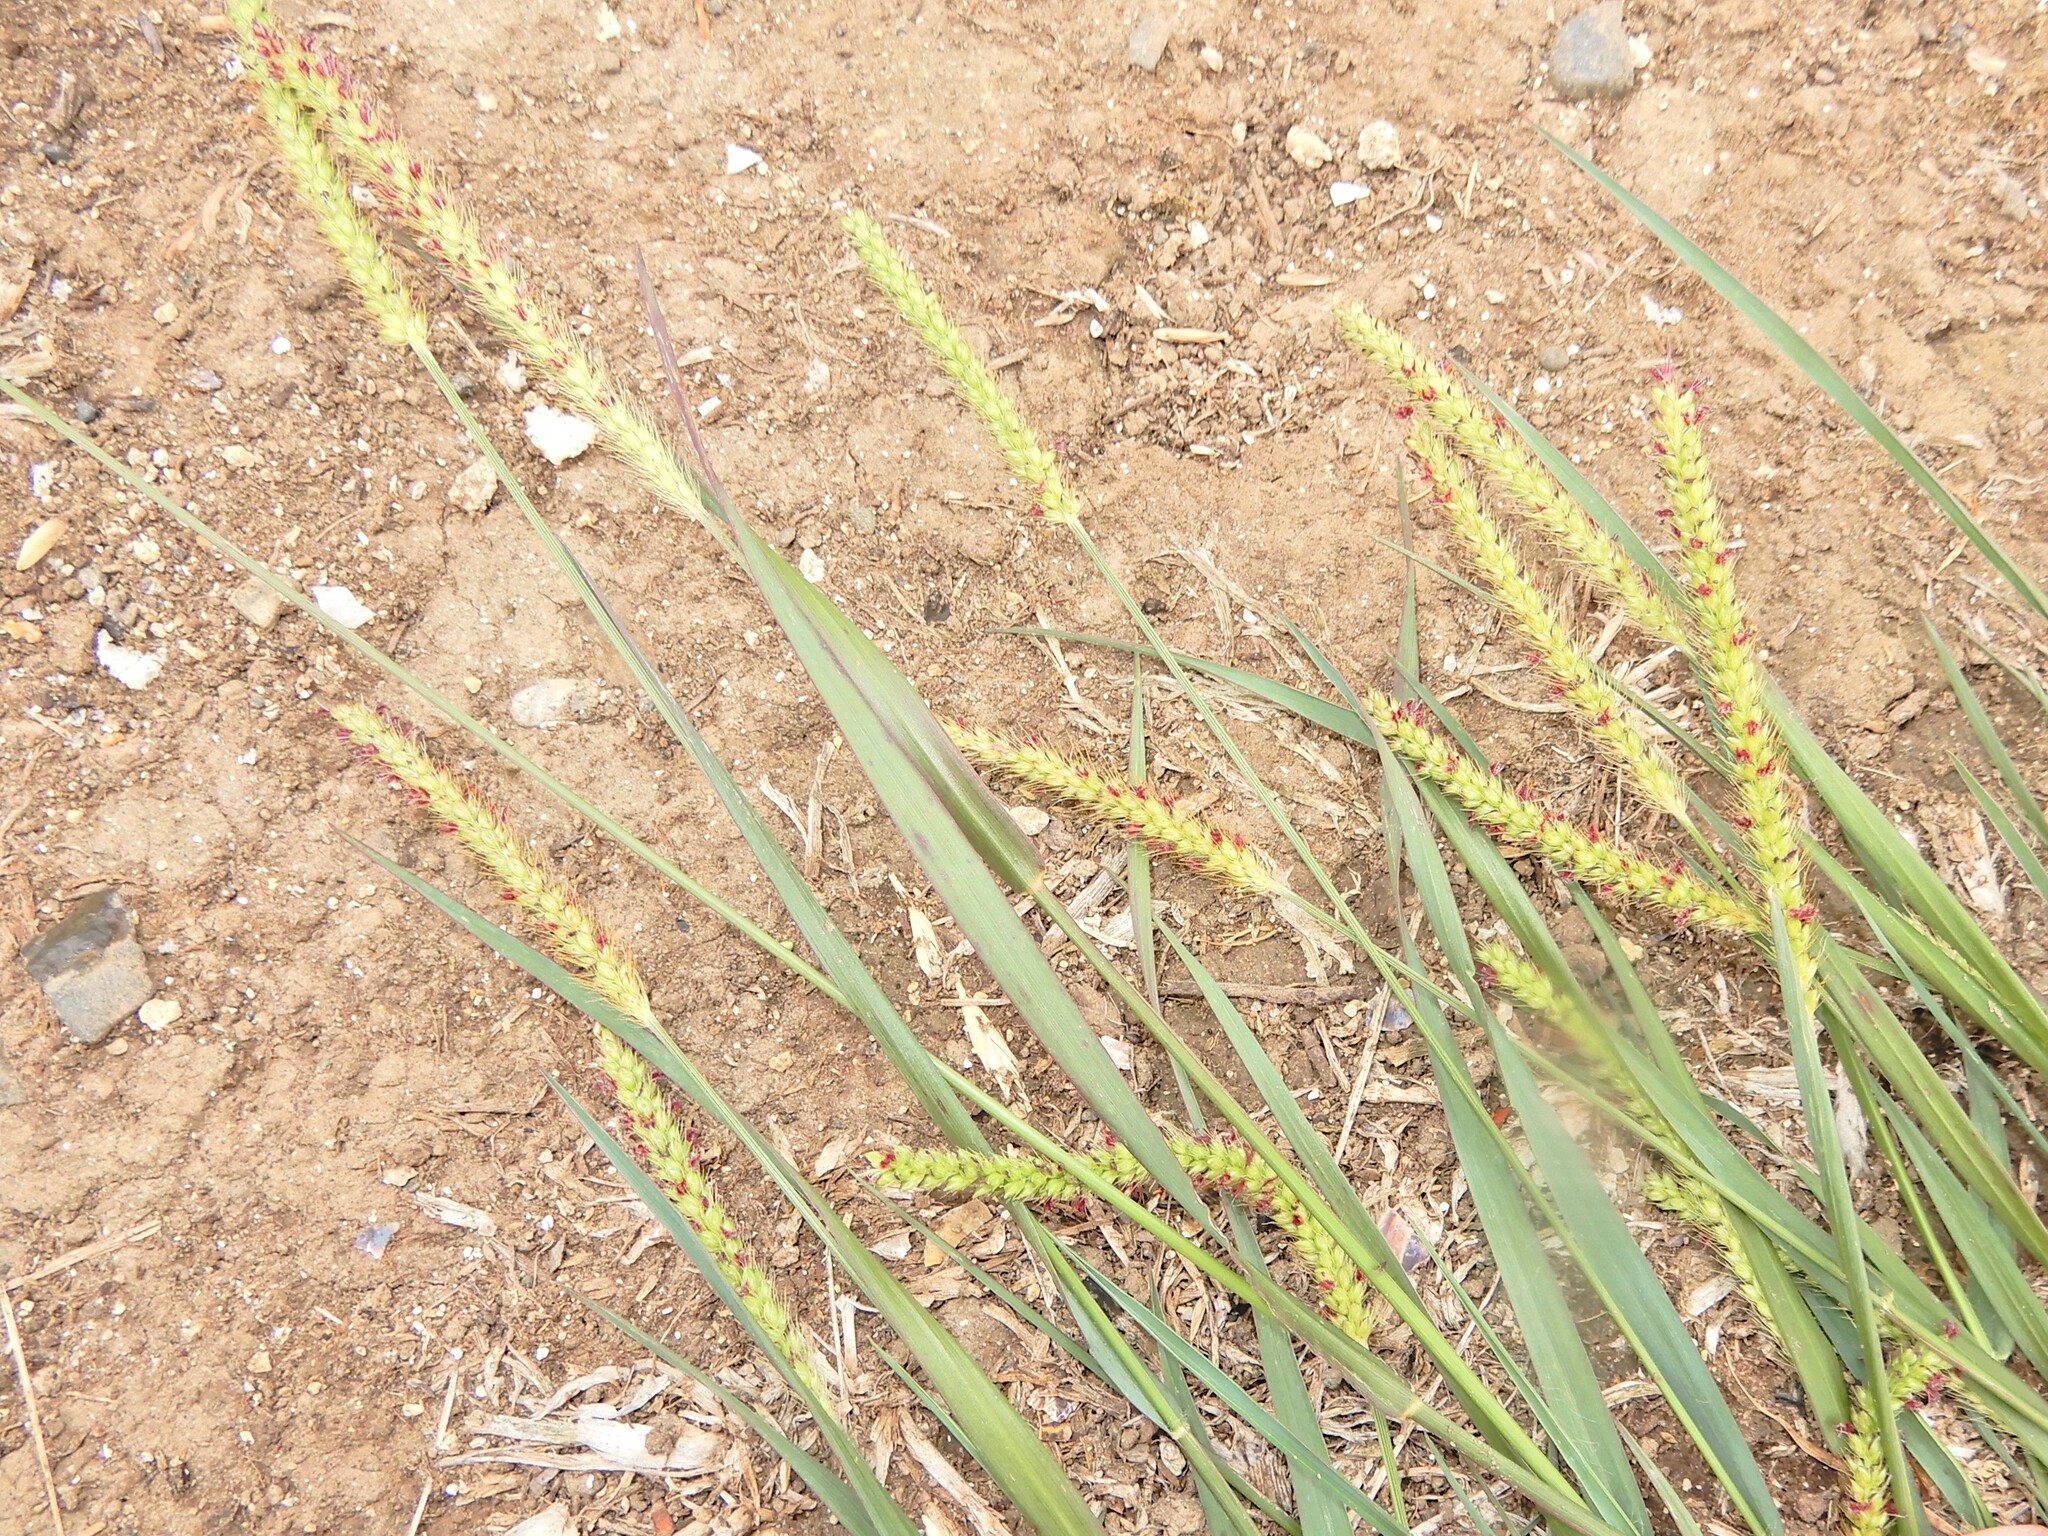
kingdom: Plantae
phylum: Tracheophyta
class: Liliopsida
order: Poales
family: Poaceae
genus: Setaria
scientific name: Setaria parviflora
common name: Knotroot bristle-grass
